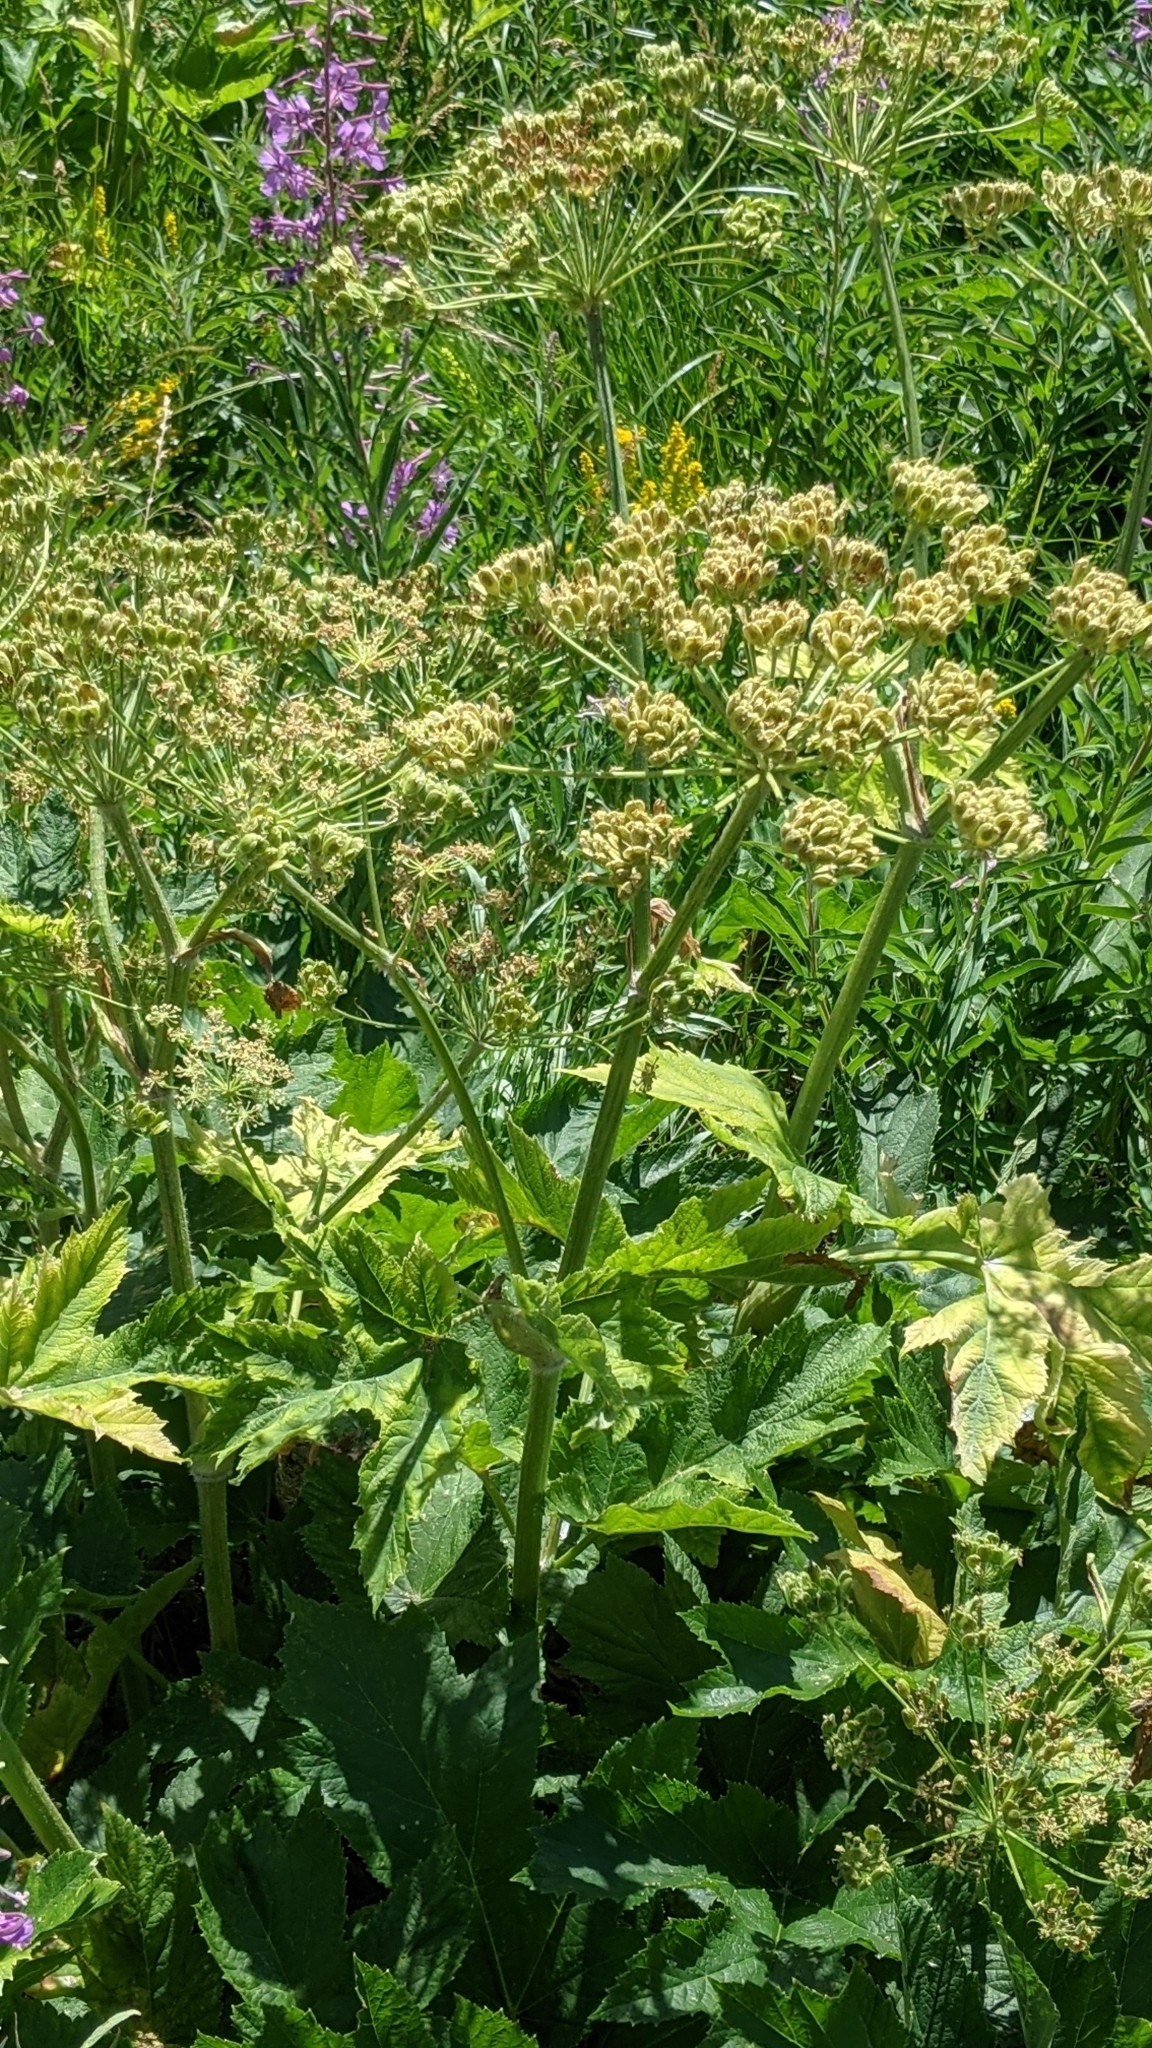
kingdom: Plantae
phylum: Tracheophyta
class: Magnoliopsida
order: Apiales
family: Apiaceae
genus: Heracleum
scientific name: Heracleum maximum
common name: American cow parsnip
